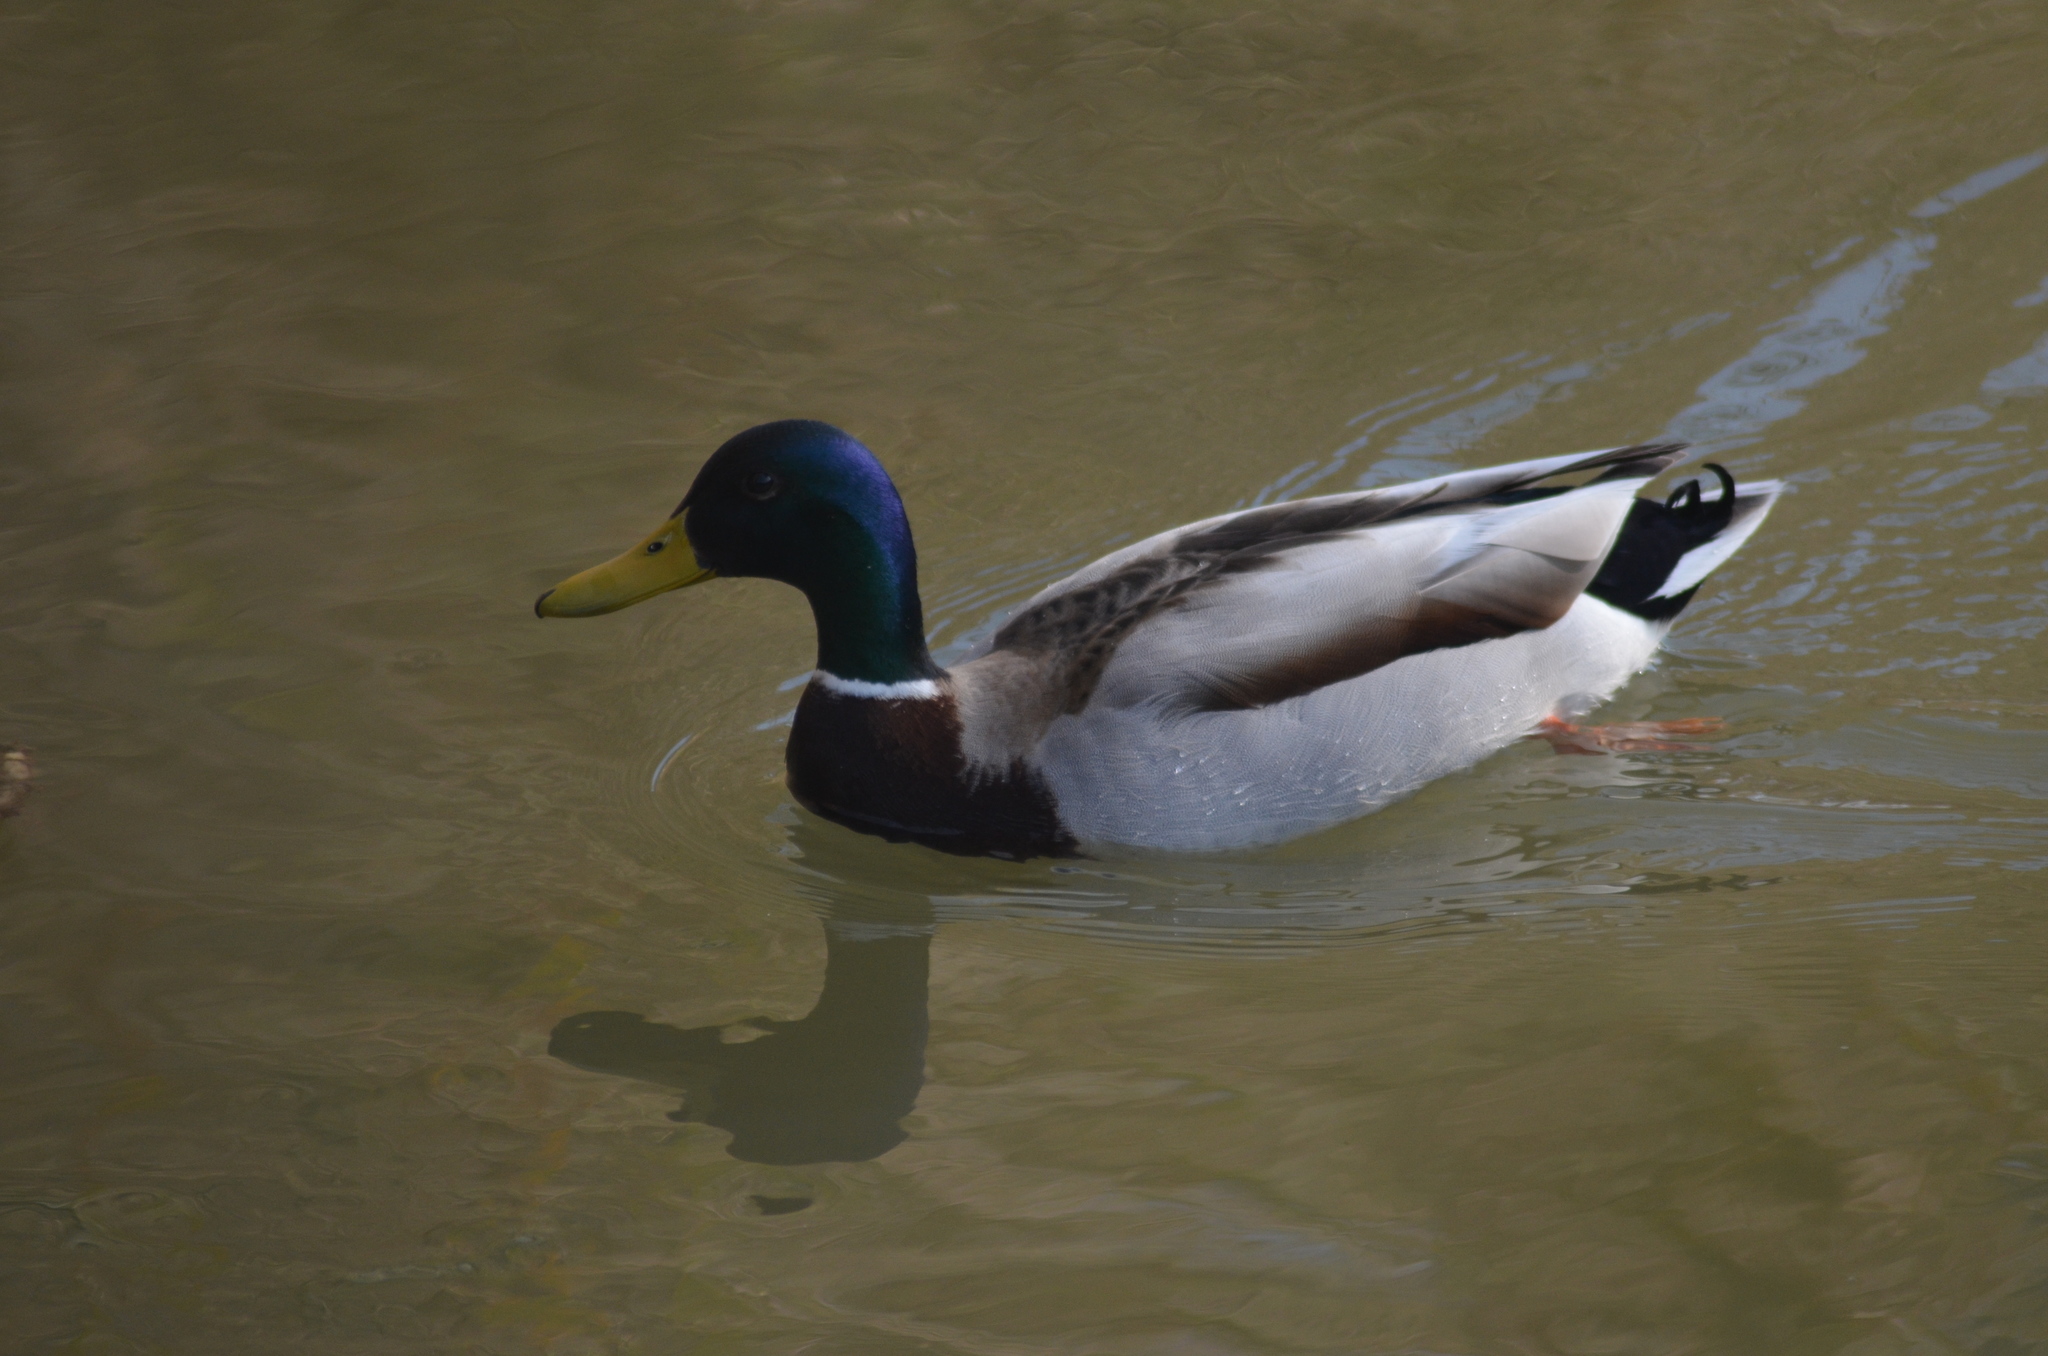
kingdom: Animalia
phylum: Chordata
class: Aves
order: Anseriformes
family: Anatidae
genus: Anas
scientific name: Anas platyrhynchos
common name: Mallard
